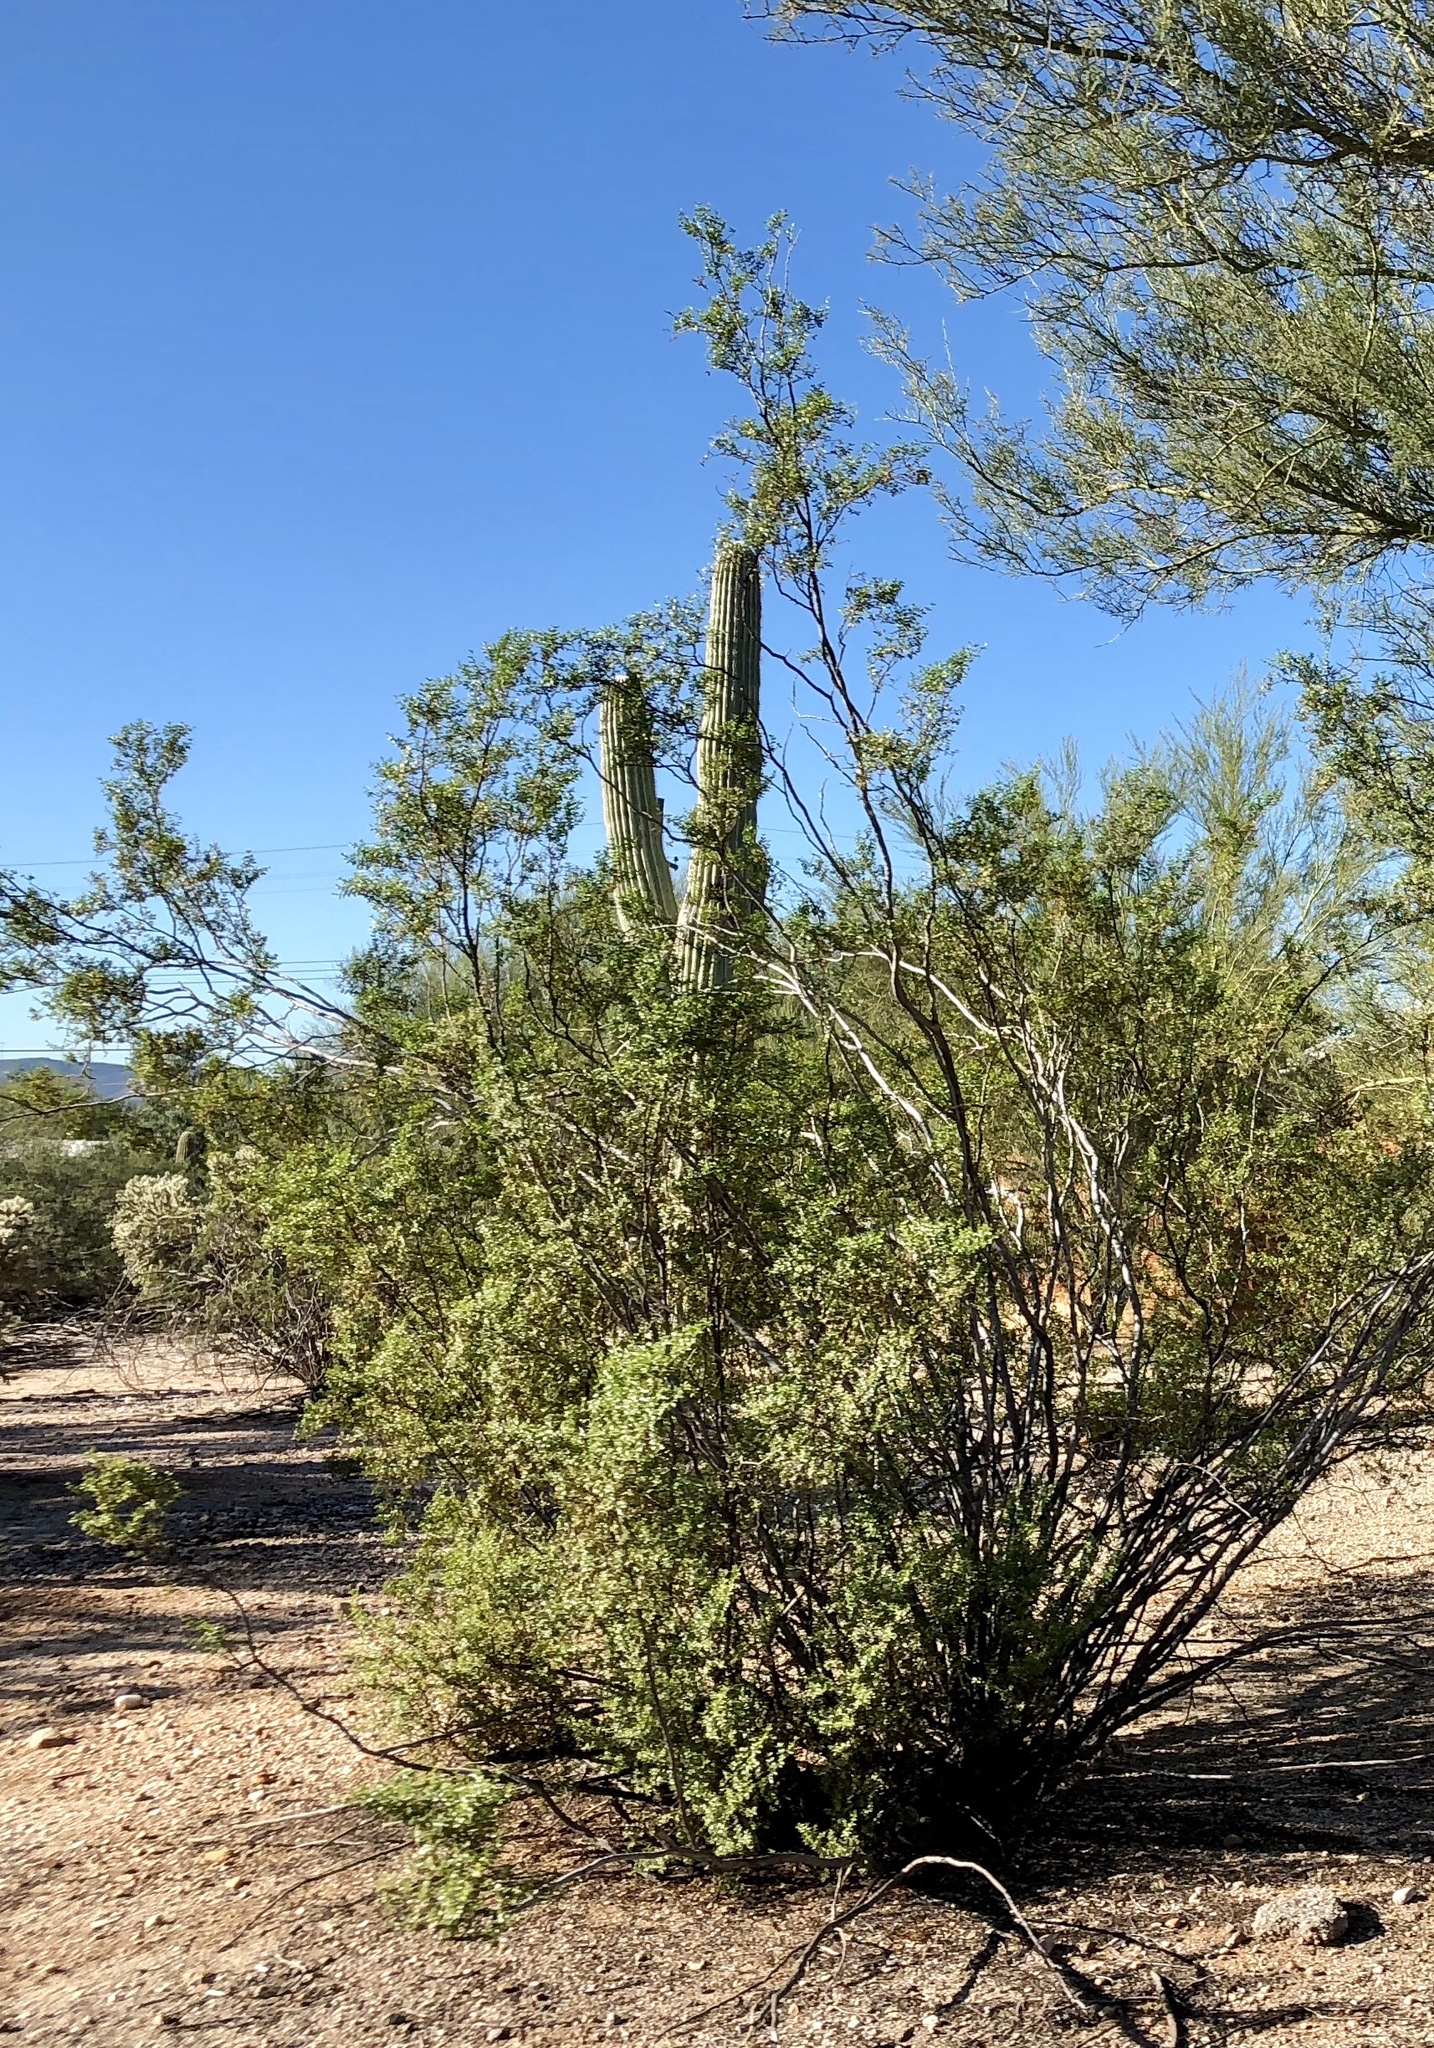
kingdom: Plantae
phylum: Tracheophyta
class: Magnoliopsida
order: Zygophyllales
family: Zygophyllaceae
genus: Larrea
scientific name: Larrea tridentata
